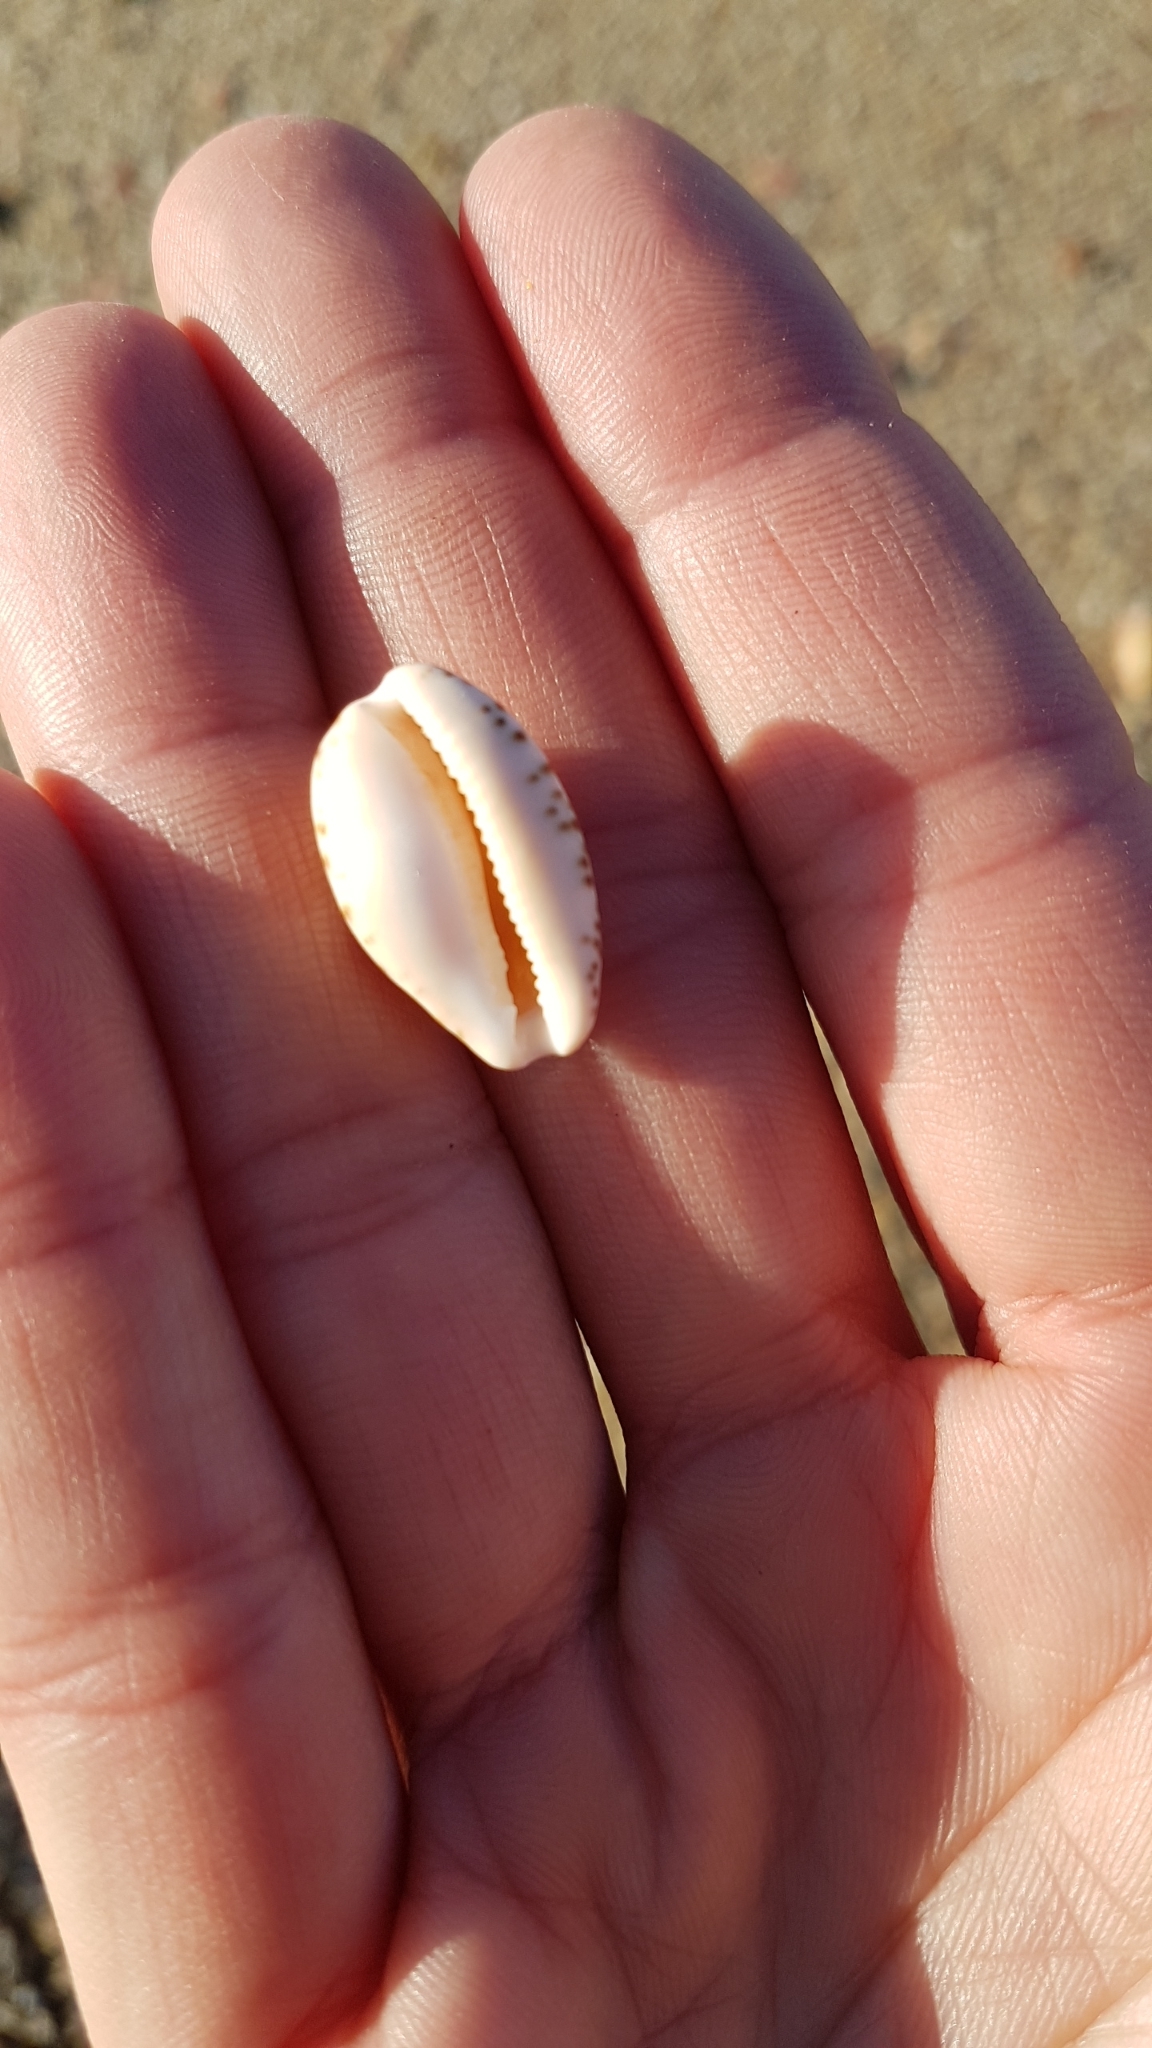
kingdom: Animalia
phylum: Mollusca
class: Gastropoda
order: Littorinimorpha
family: Cypraeidae
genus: Notocypraea
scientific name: Notocypraea comptonii
